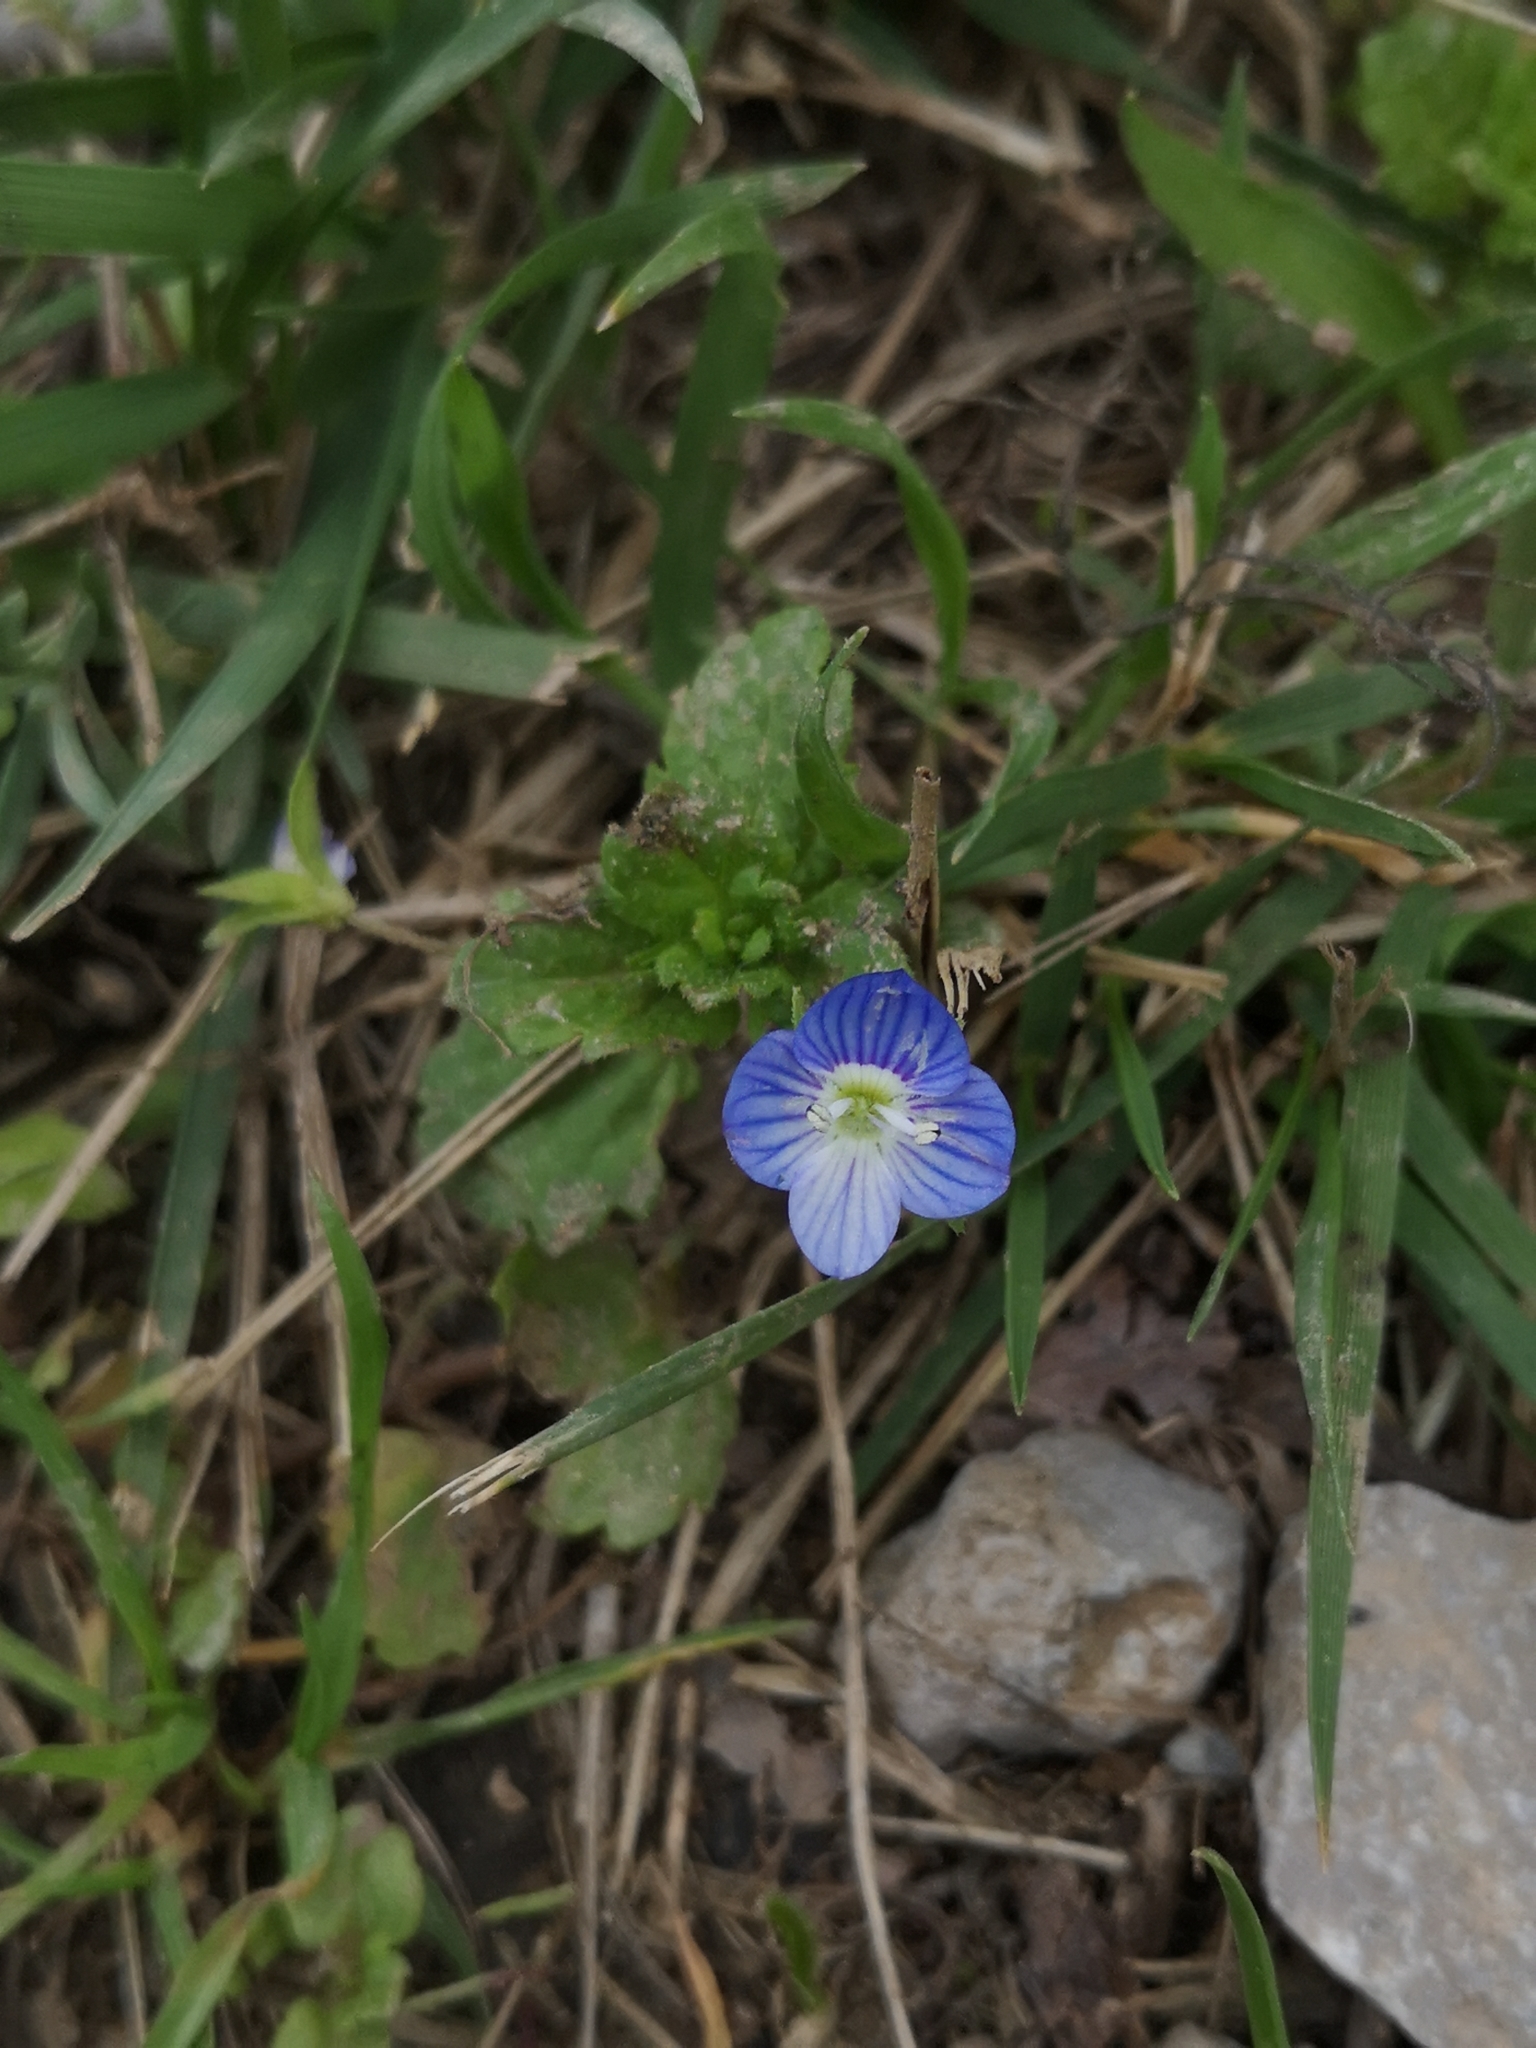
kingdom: Plantae
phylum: Tracheophyta
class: Magnoliopsida
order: Lamiales
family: Plantaginaceae
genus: Veronica
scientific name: Veronica persica
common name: Common field-speedwell
